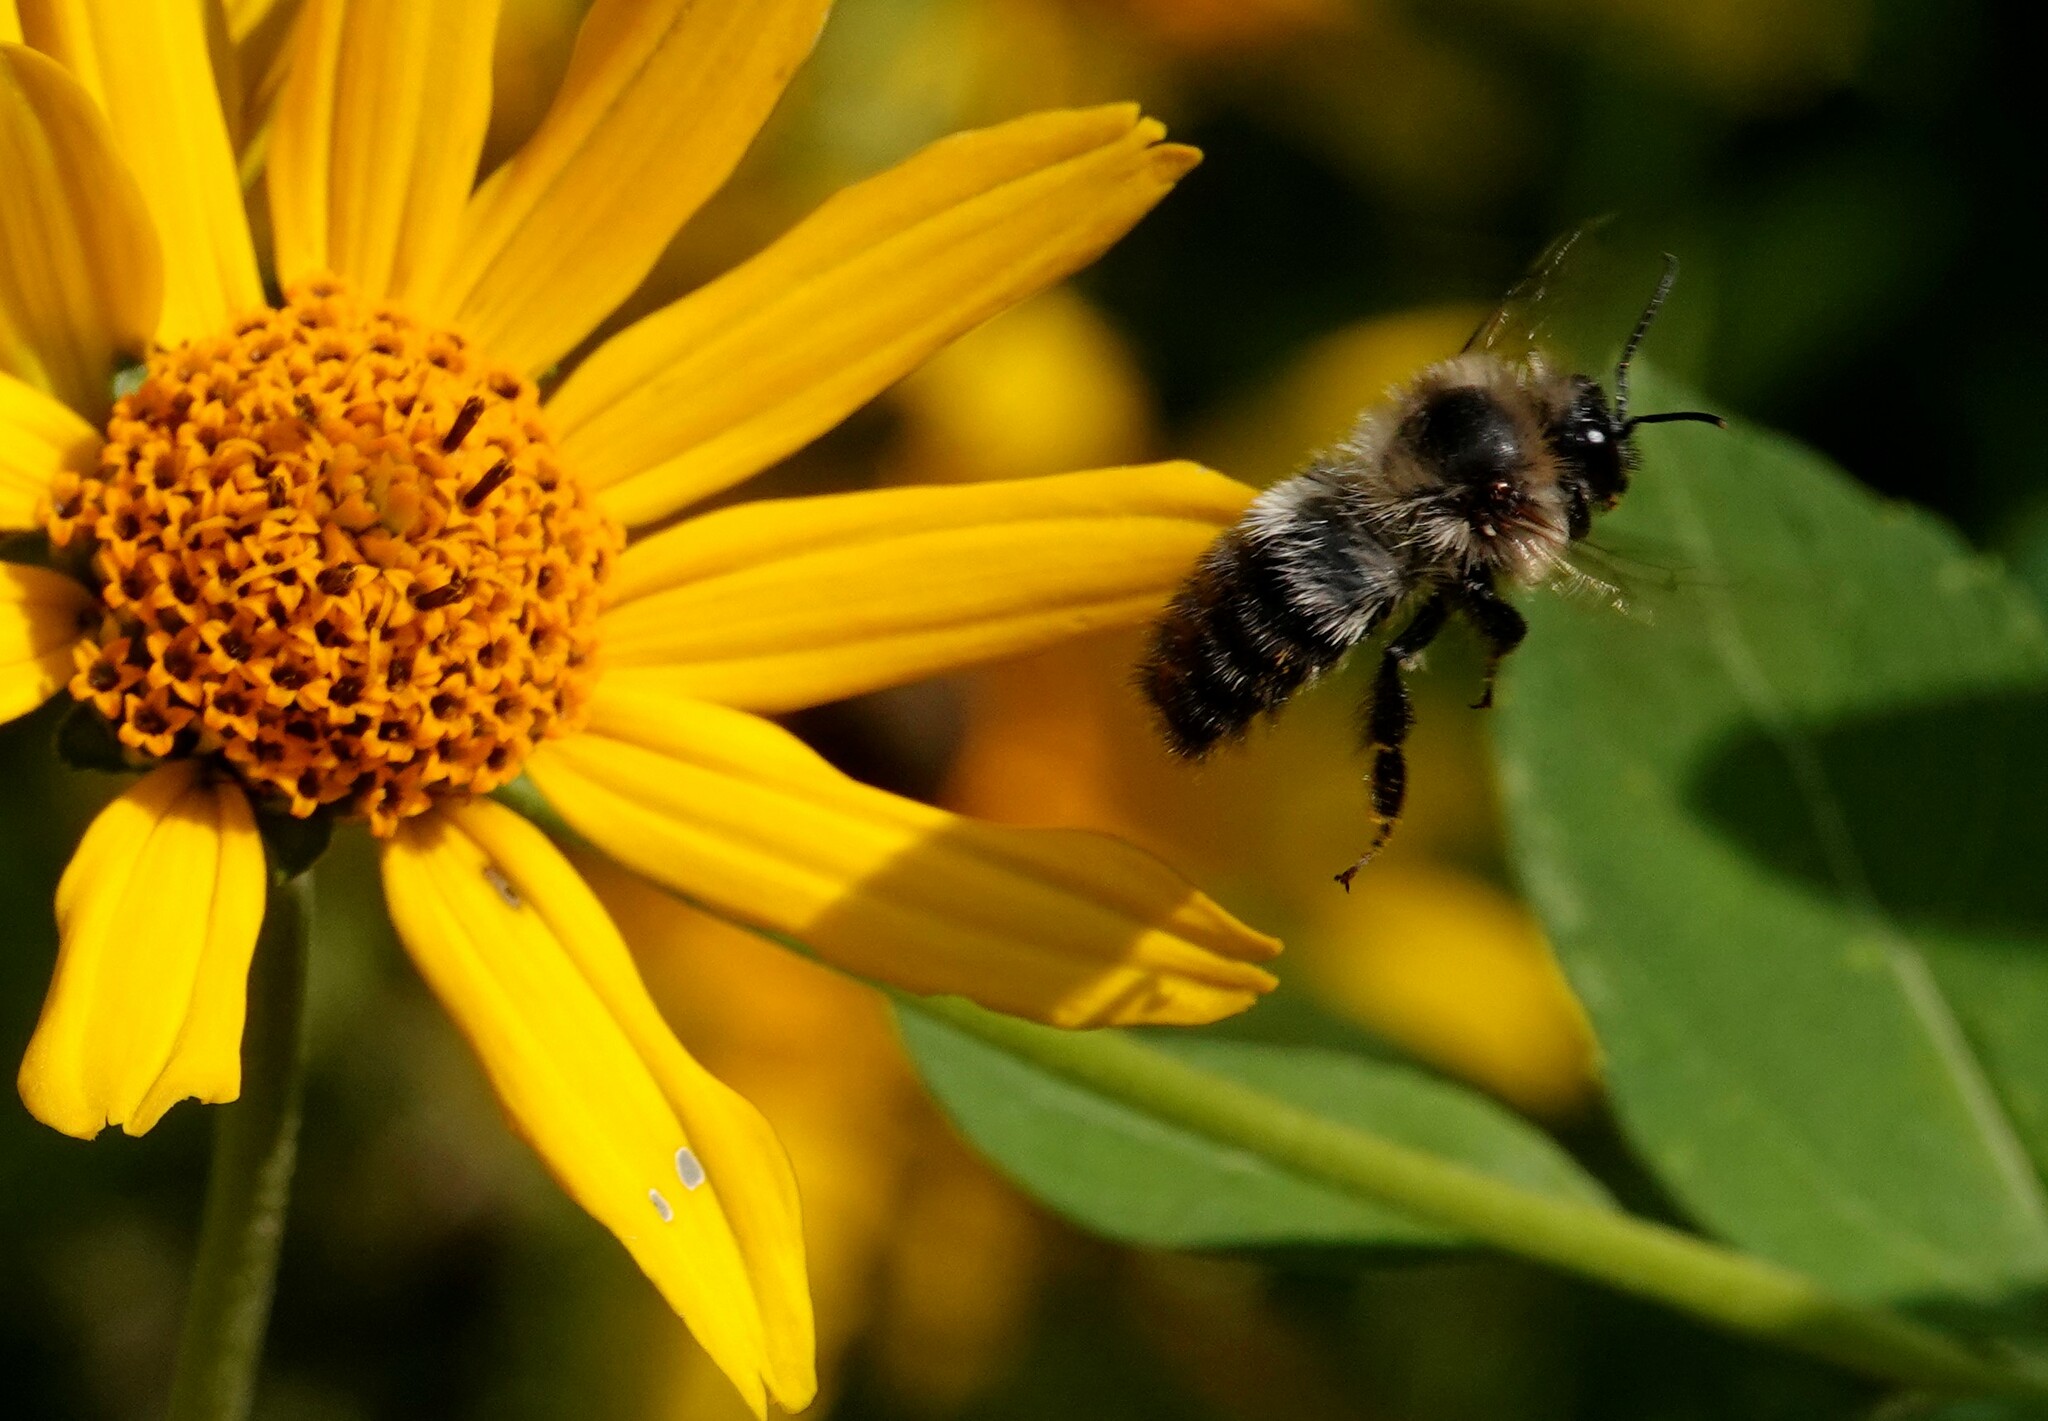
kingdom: Animalia
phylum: Arthropoda
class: Insecta
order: Hymenoptera
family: Apidae
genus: Bombus
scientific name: Bombus rufocinctus
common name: Red-belted bumble bee
